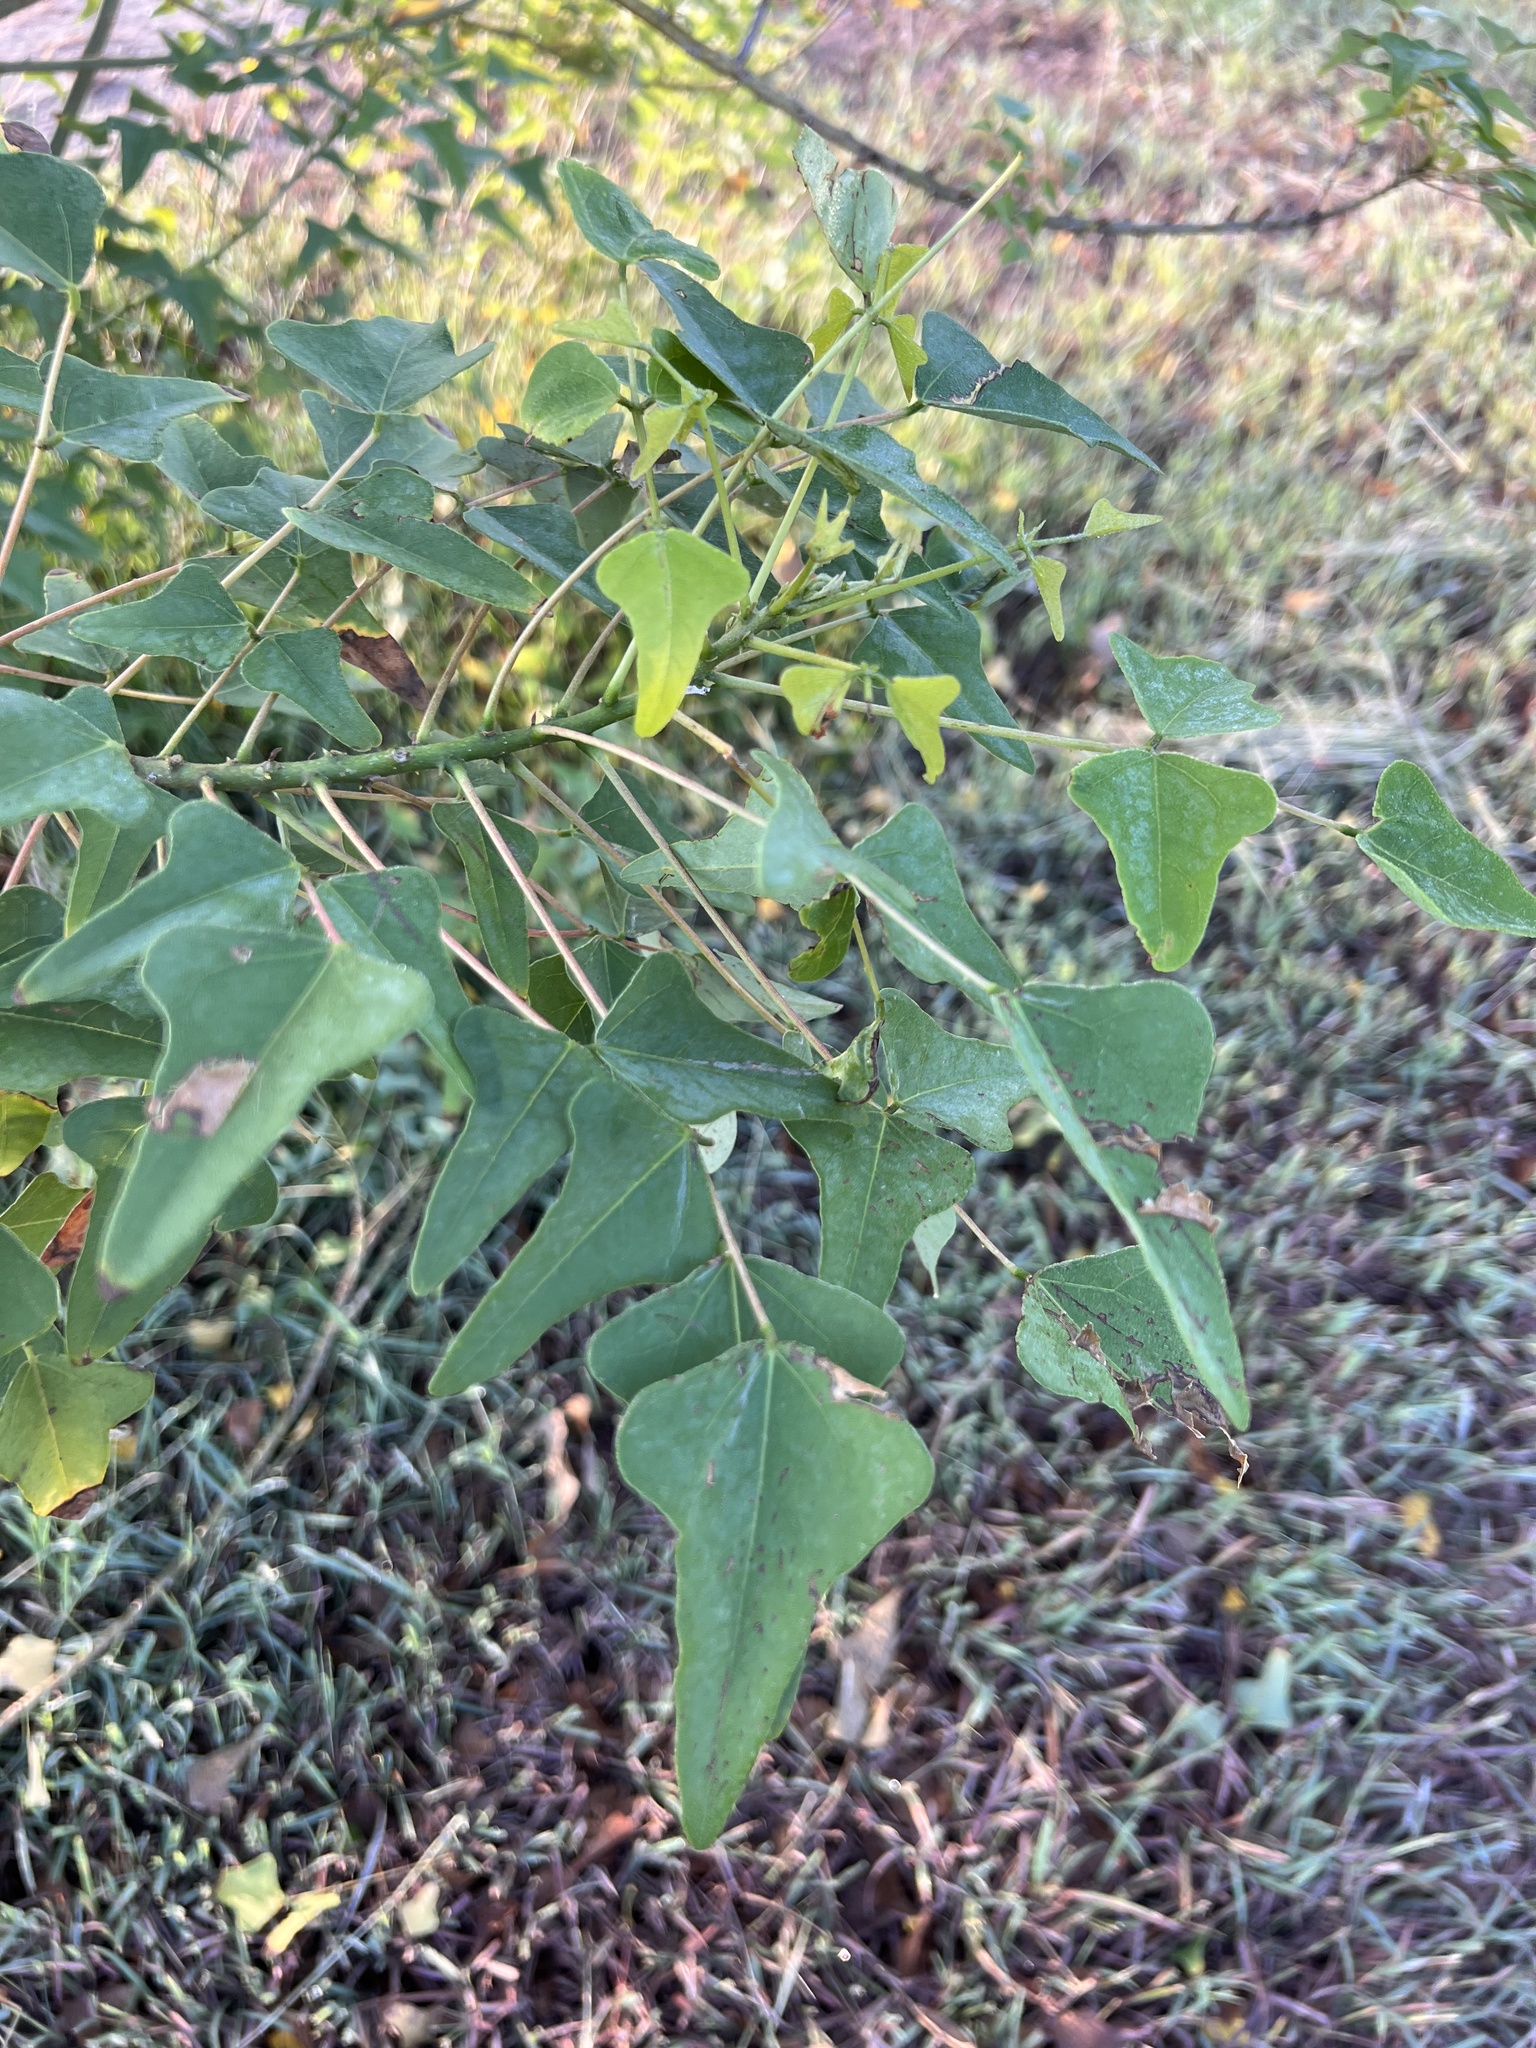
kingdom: Plantae
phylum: Tracheophyta
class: Magnoliopsida
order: Fabales
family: Fabaceae
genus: Erythrina
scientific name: Erythrina herbacea
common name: Coral-bean
